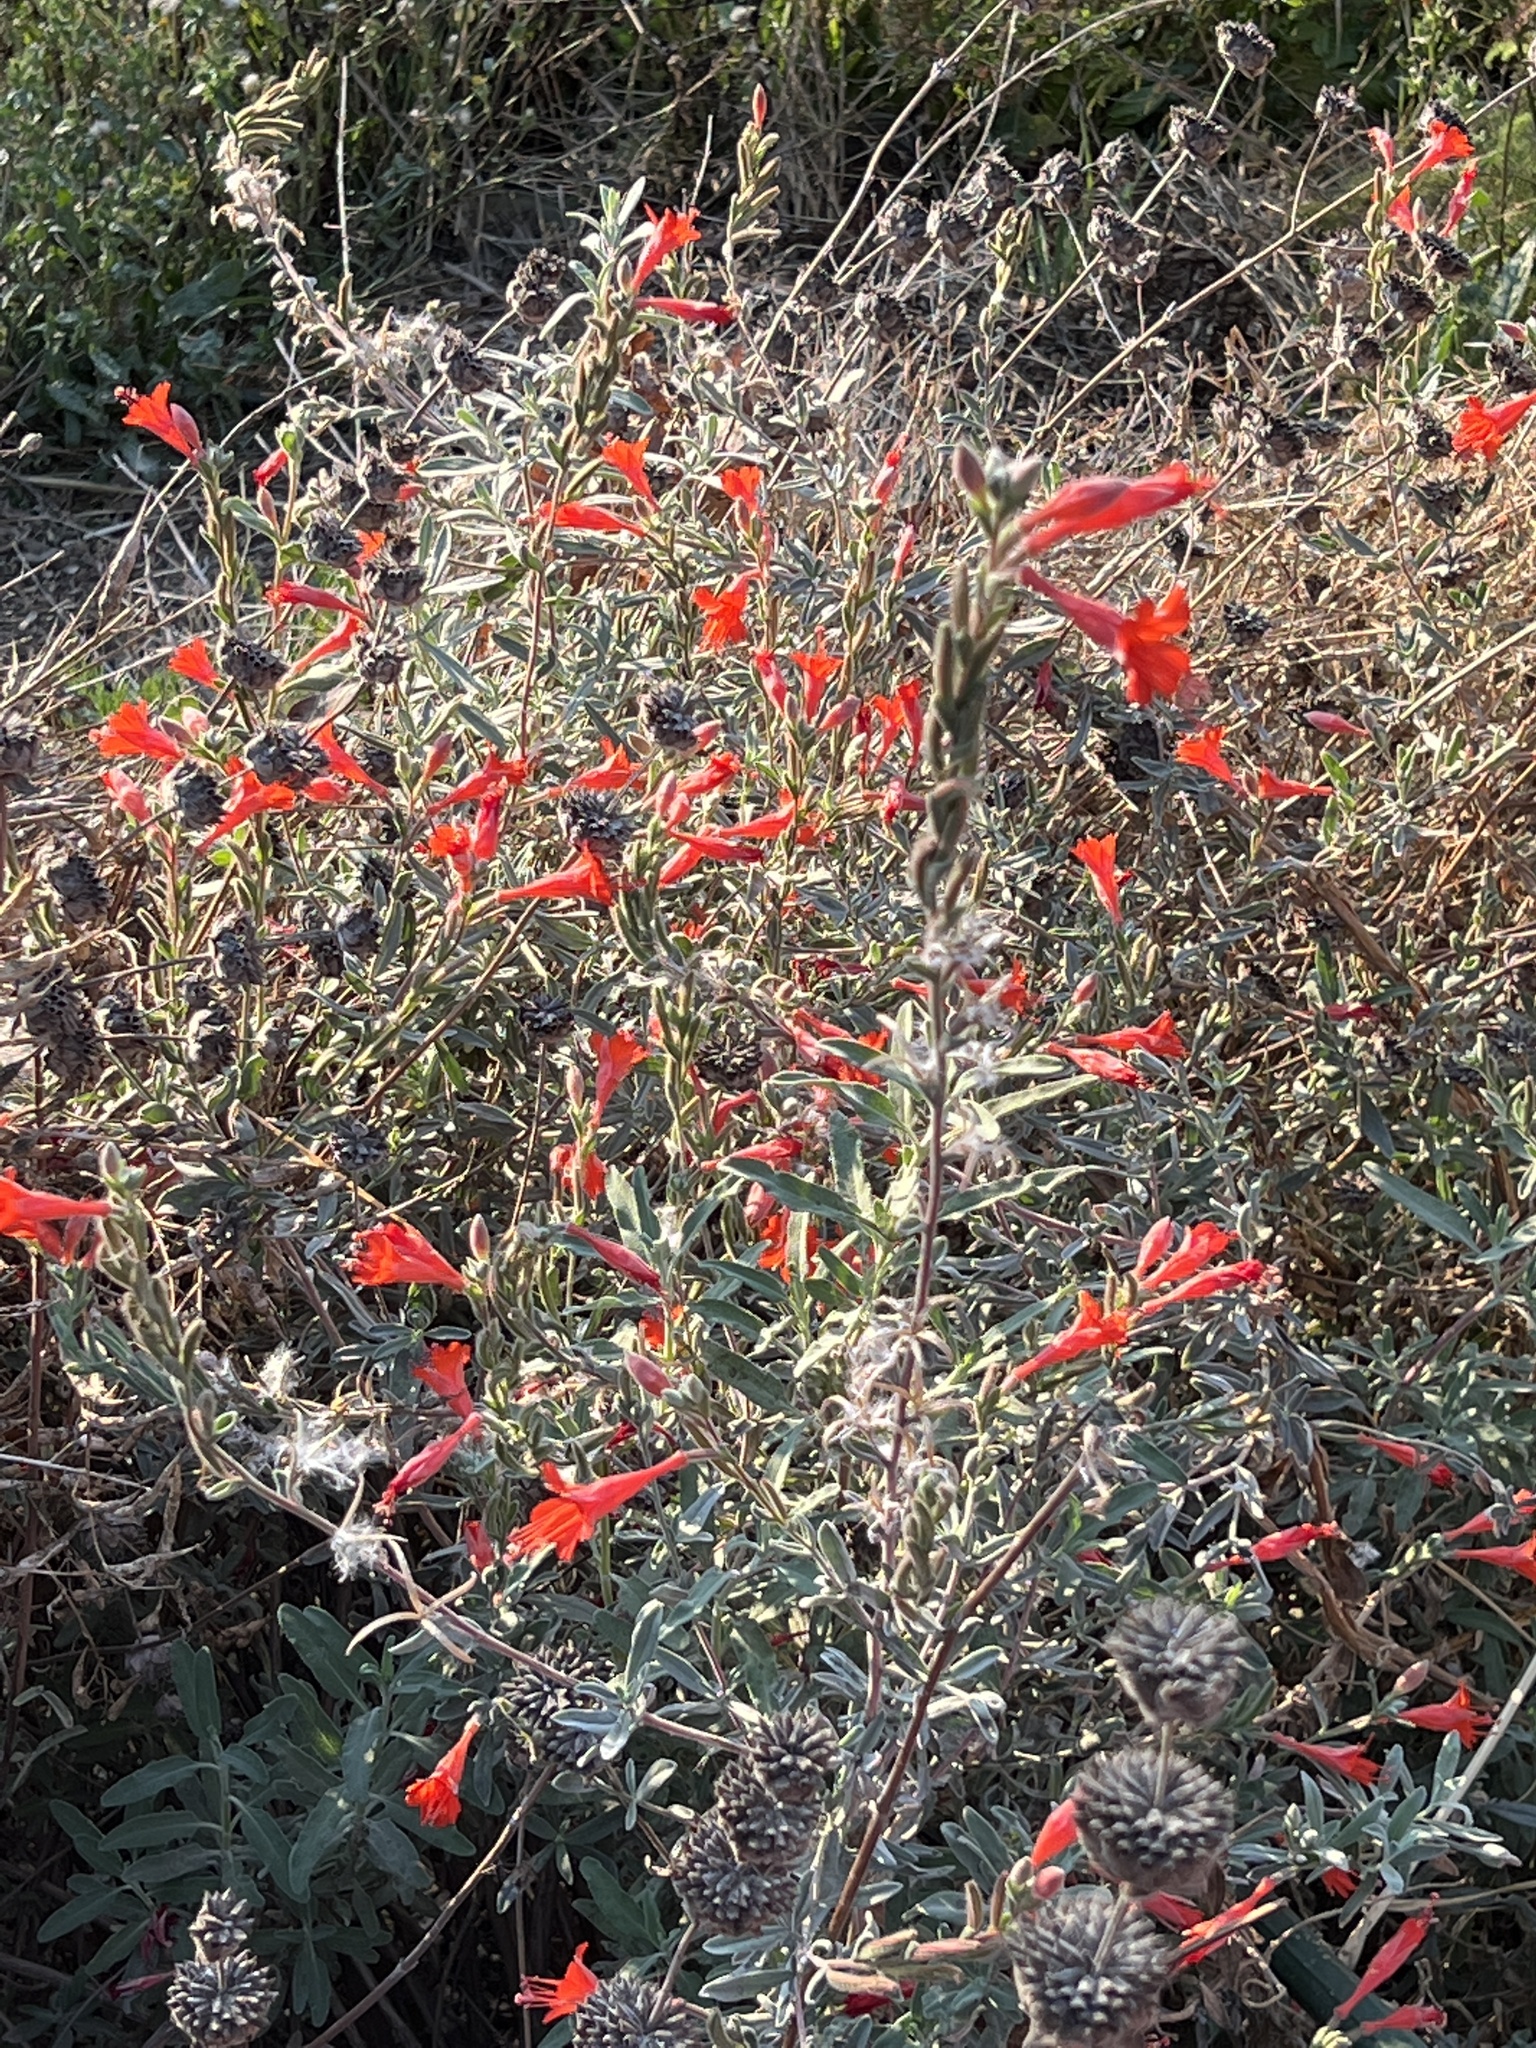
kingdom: Plantae
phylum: Tracheophyta
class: Magnoliopsida
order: Myrtales
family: Onagraceae
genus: Epilobium
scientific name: Epilobium canum
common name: California-fuchsia
